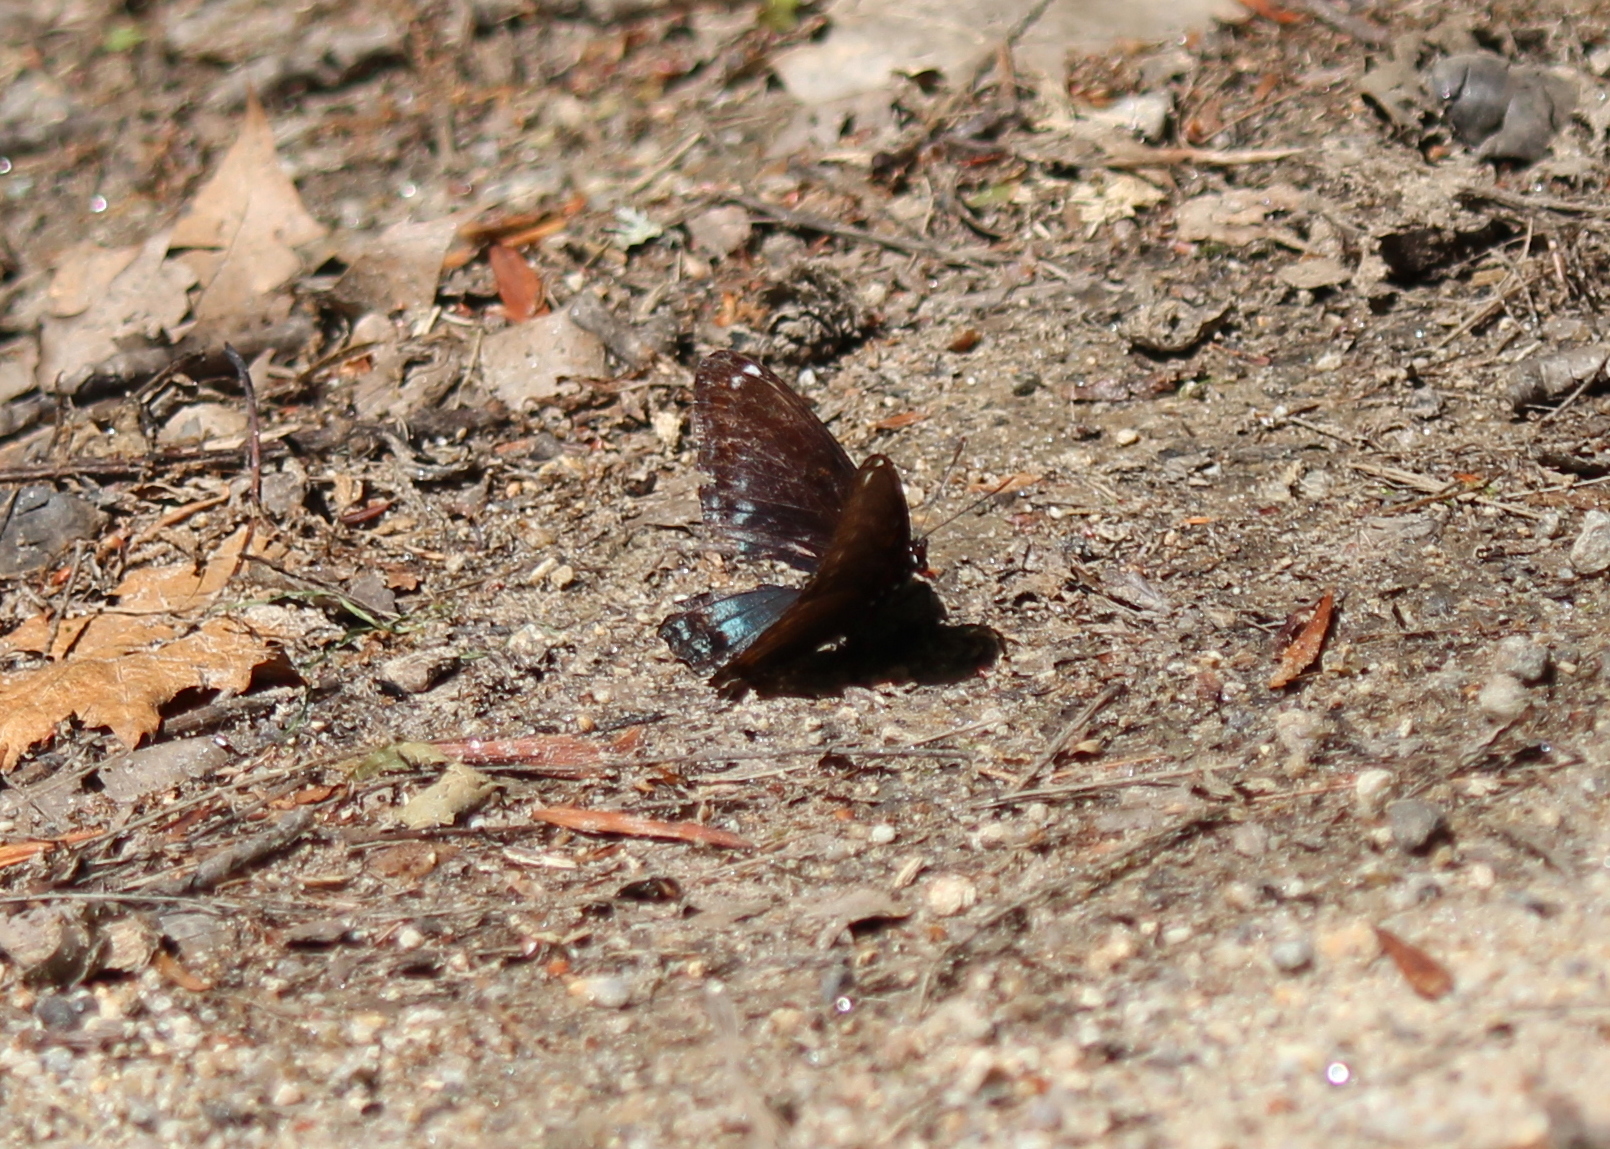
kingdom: Animalia
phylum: Arthropoda
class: Insecta
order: Lepidoptera
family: Nymphalidae
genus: Limenitis
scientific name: Limenitis astyanax
